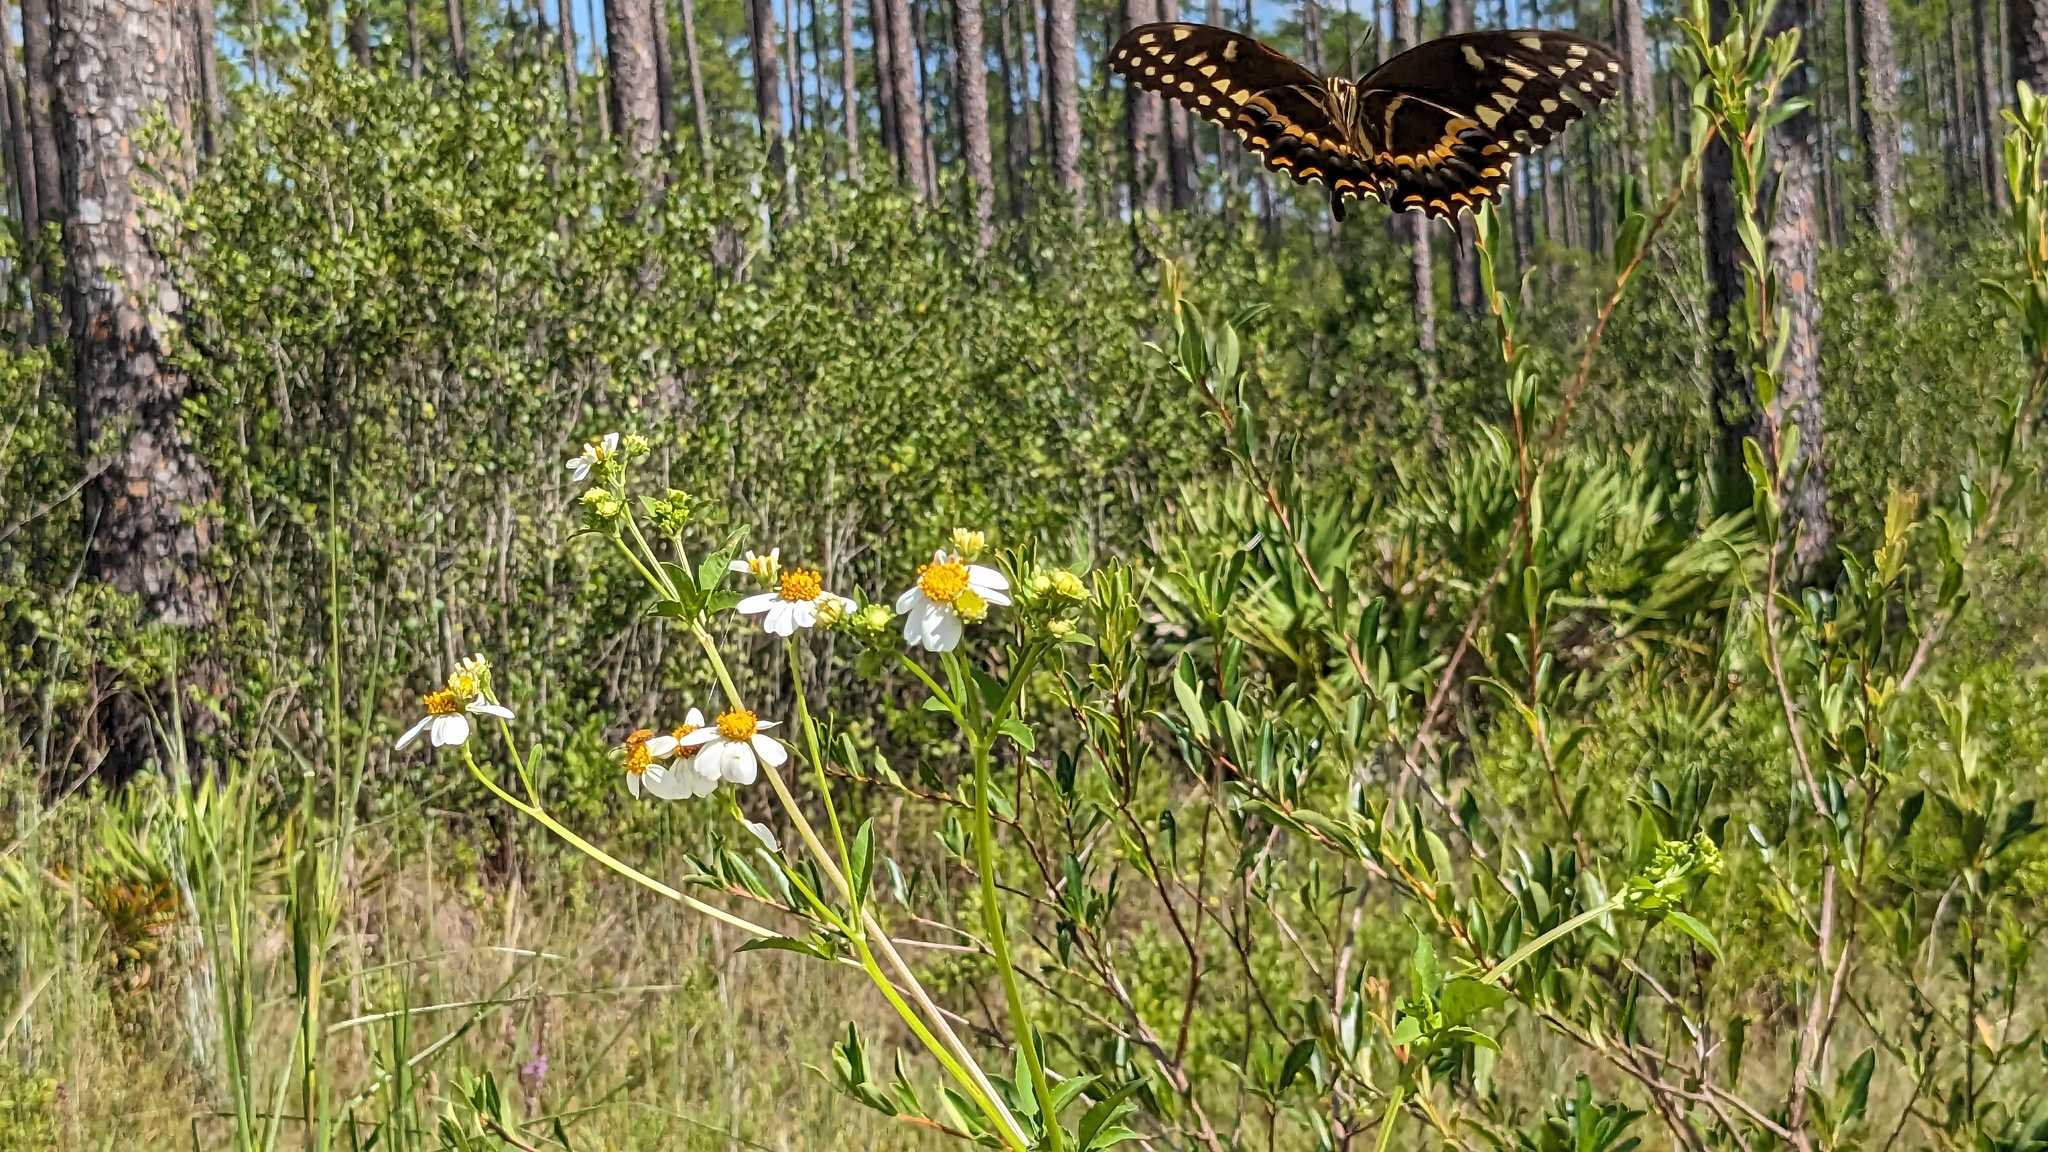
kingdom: Animalia
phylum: Arthropoda
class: Insecta
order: Lepidoptera
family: Papilionidae
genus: Papilio
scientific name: Papilio palamedes
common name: Palamedes swallowtail
